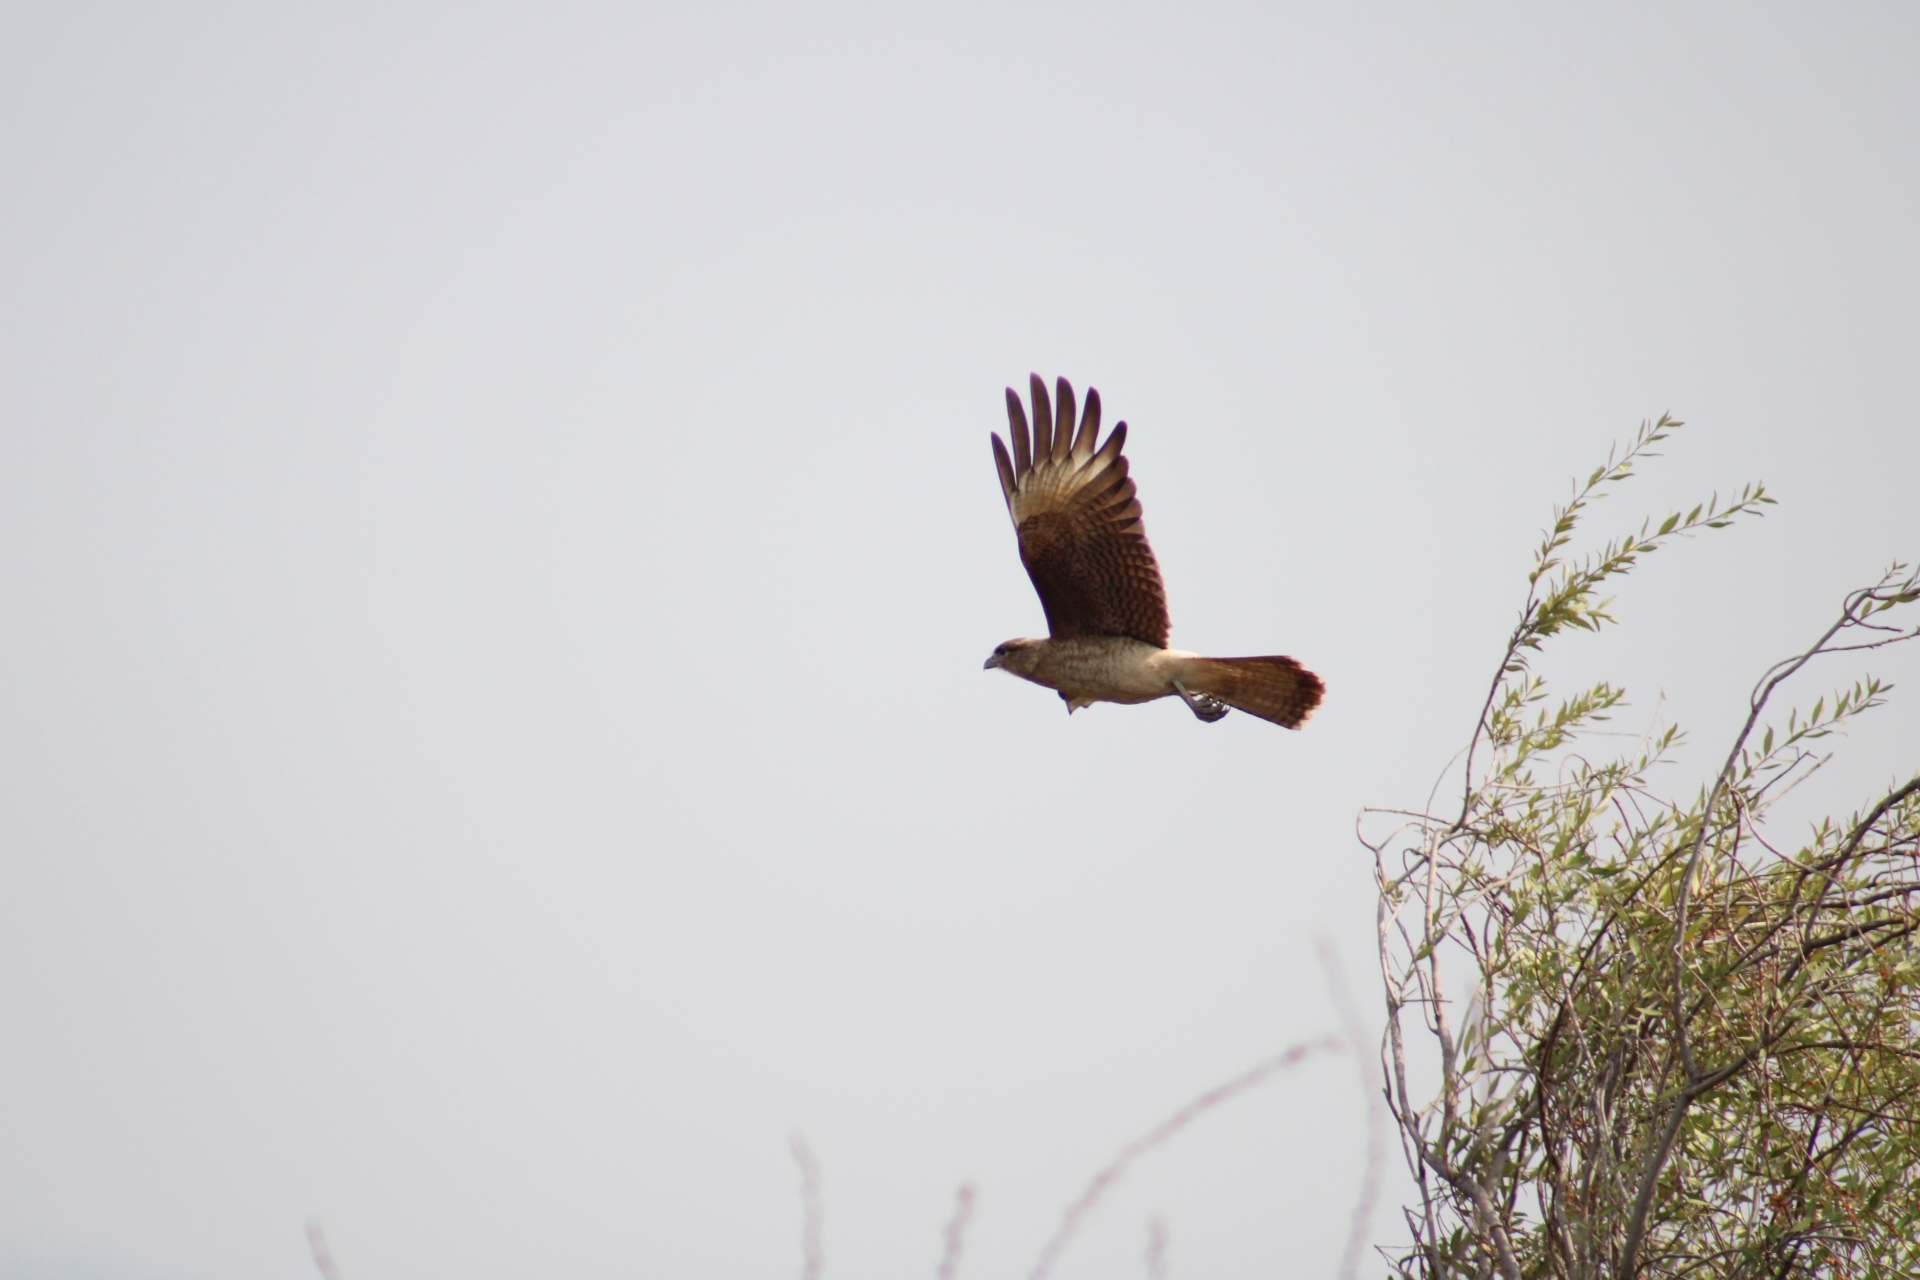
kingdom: Animalia
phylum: Chordata
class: Aves
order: Falconiformes
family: Falconidae
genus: Daptrius
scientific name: Daptrius
